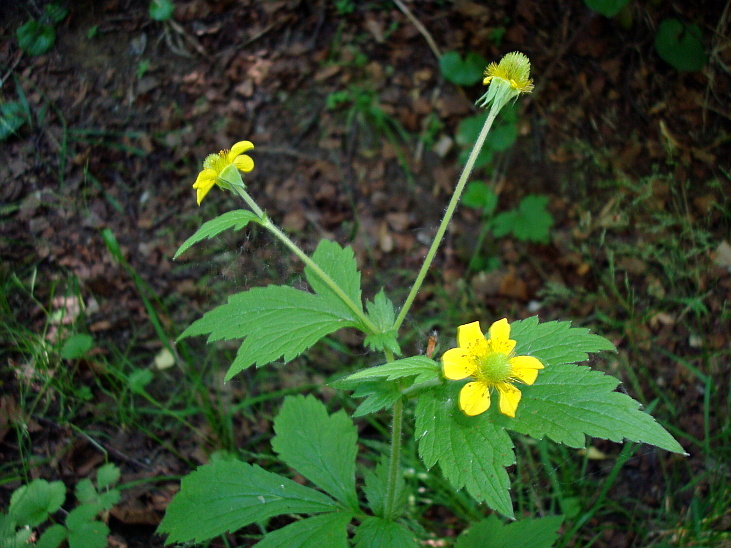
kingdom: Plantae
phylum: Tracheophyta
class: Magnoliopsida
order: Rosales
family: Rosaceae
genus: Geum
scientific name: Geum aleppicum
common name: Yellow avens
